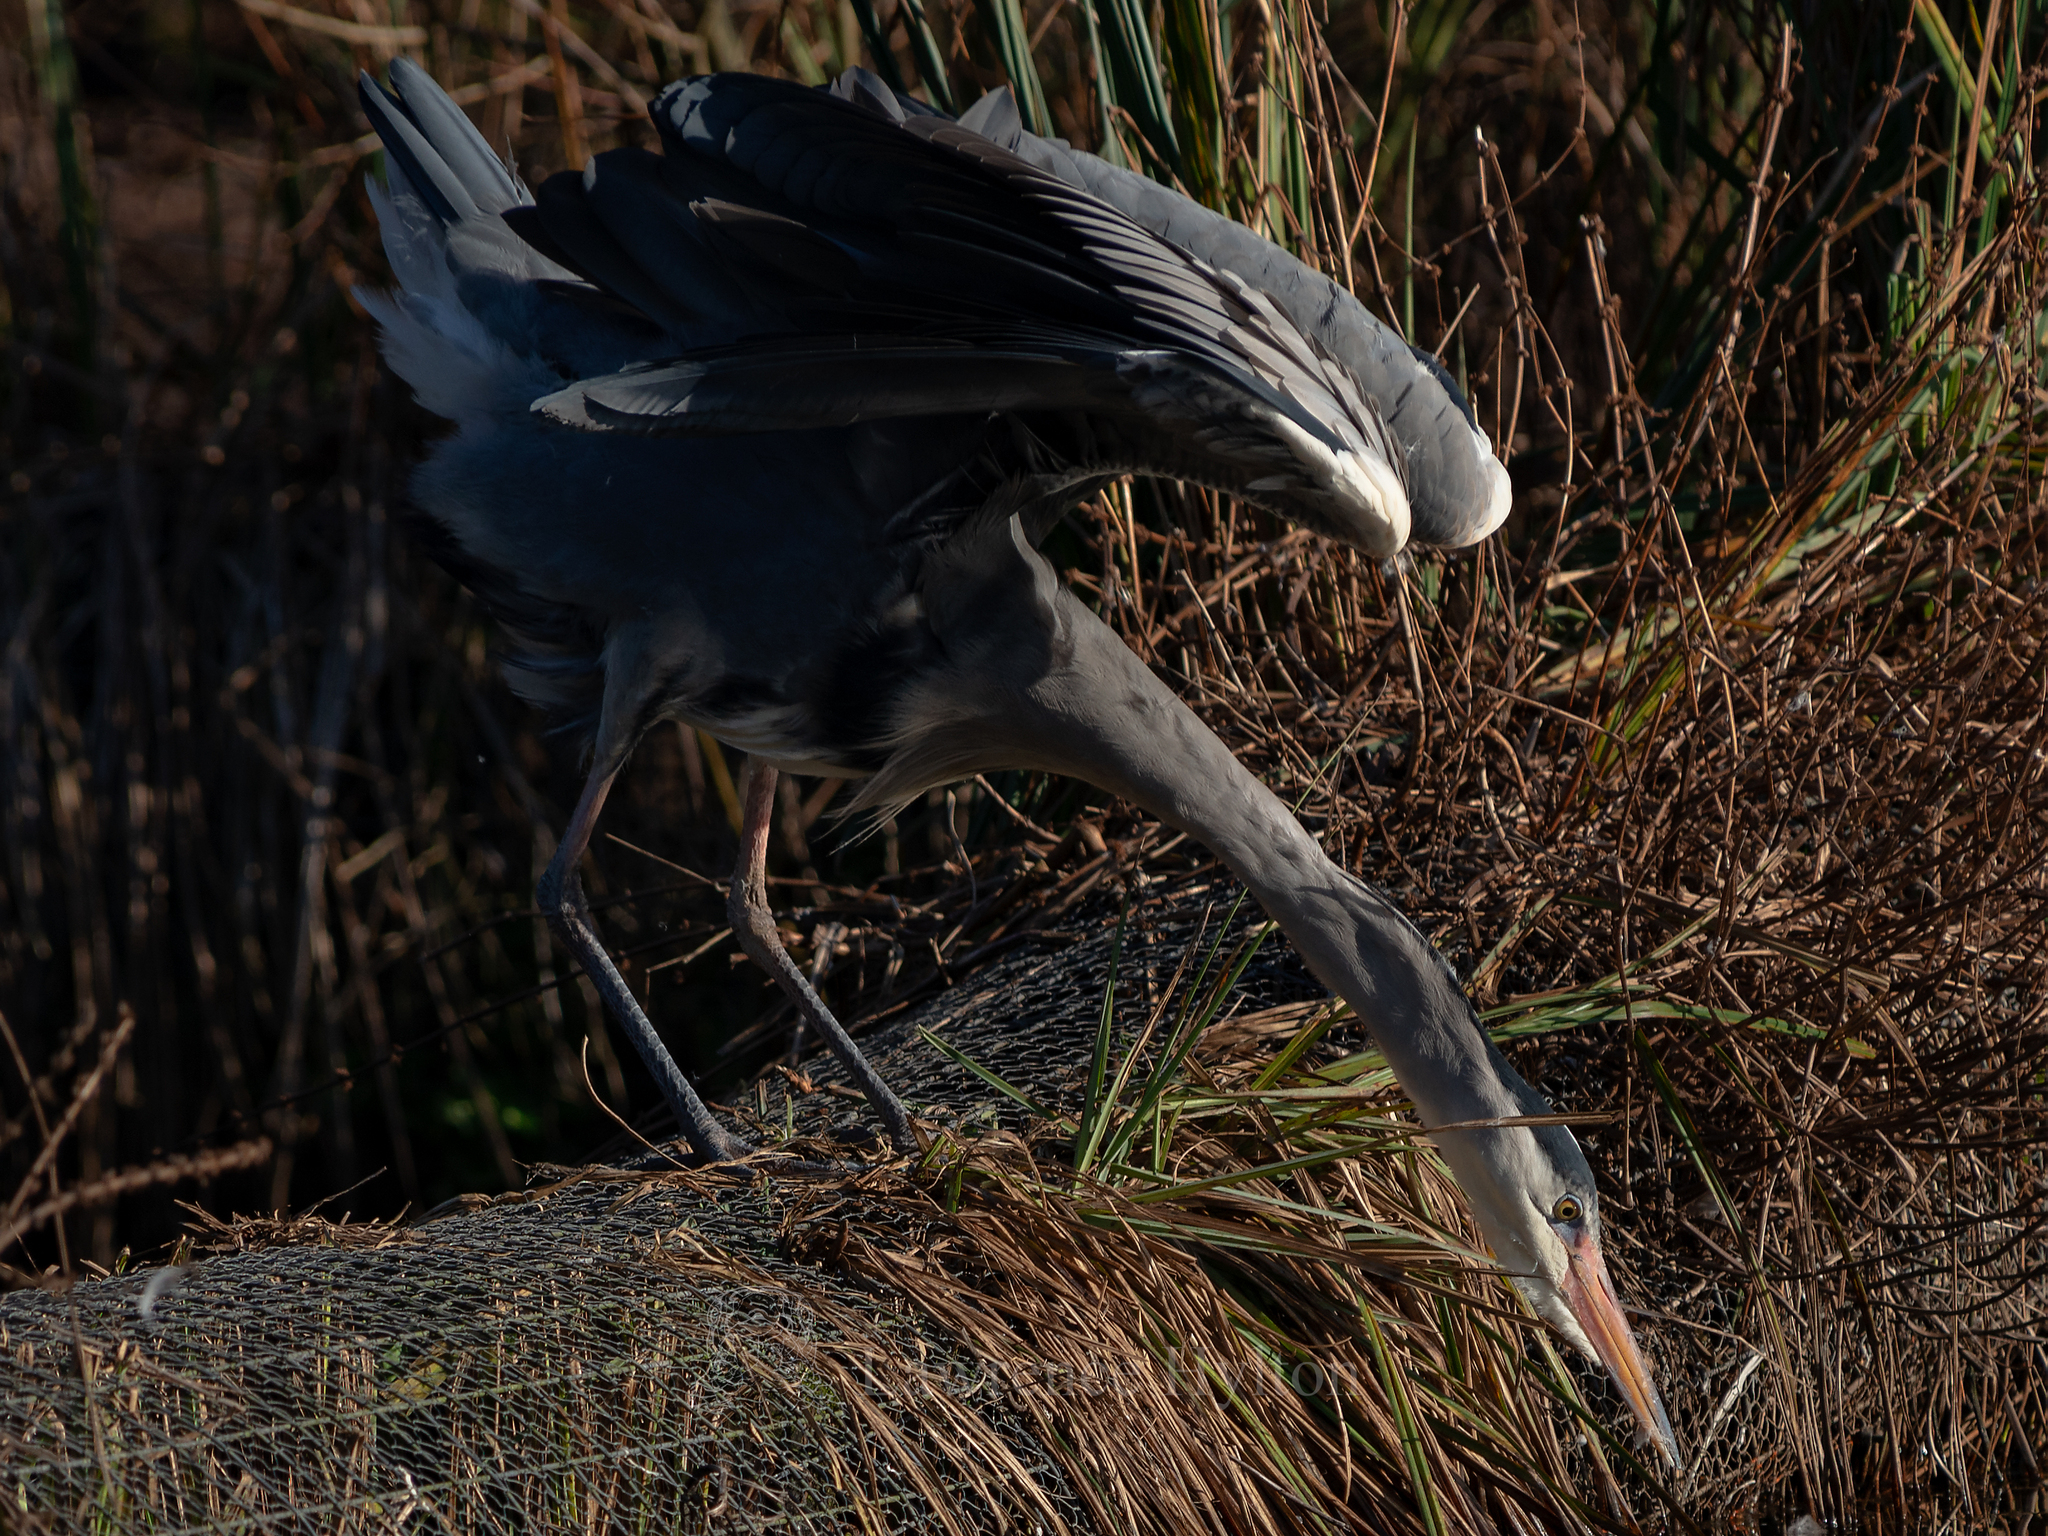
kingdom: Animalia
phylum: Chordata
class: Aves
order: Pelecaniformes
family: Ardeidae
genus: Ardea
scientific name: Ardea cinerea
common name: Grey heron
